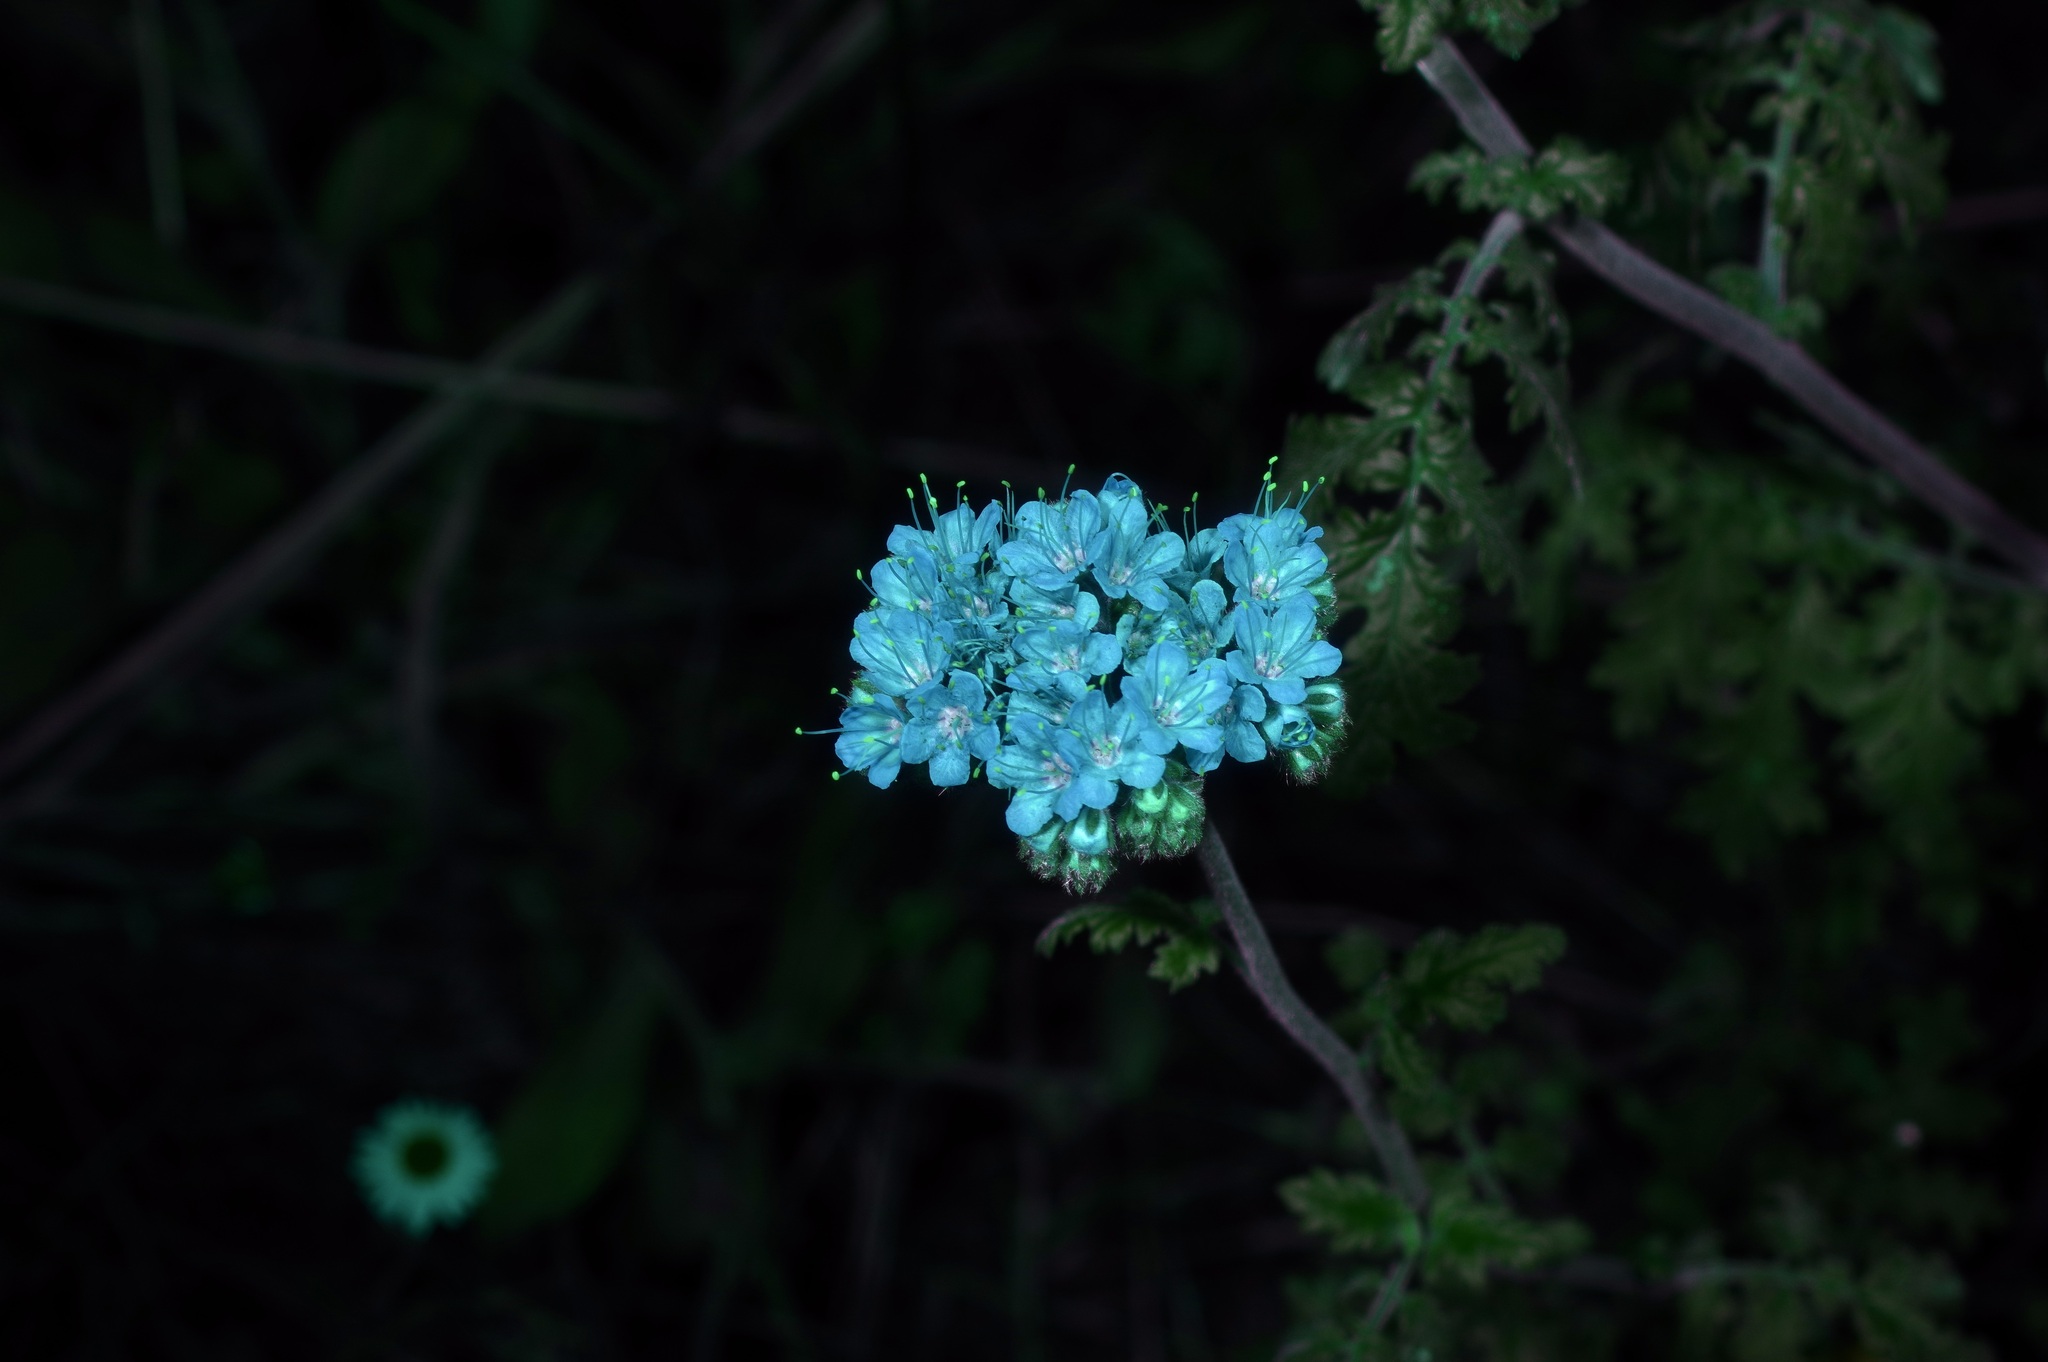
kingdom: Plantae
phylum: Tracheophyta
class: Magnoliopsida
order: Boraginales
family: Hydrophyllaceae
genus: Phacelia
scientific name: Phacelia congesta
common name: Blue curls
